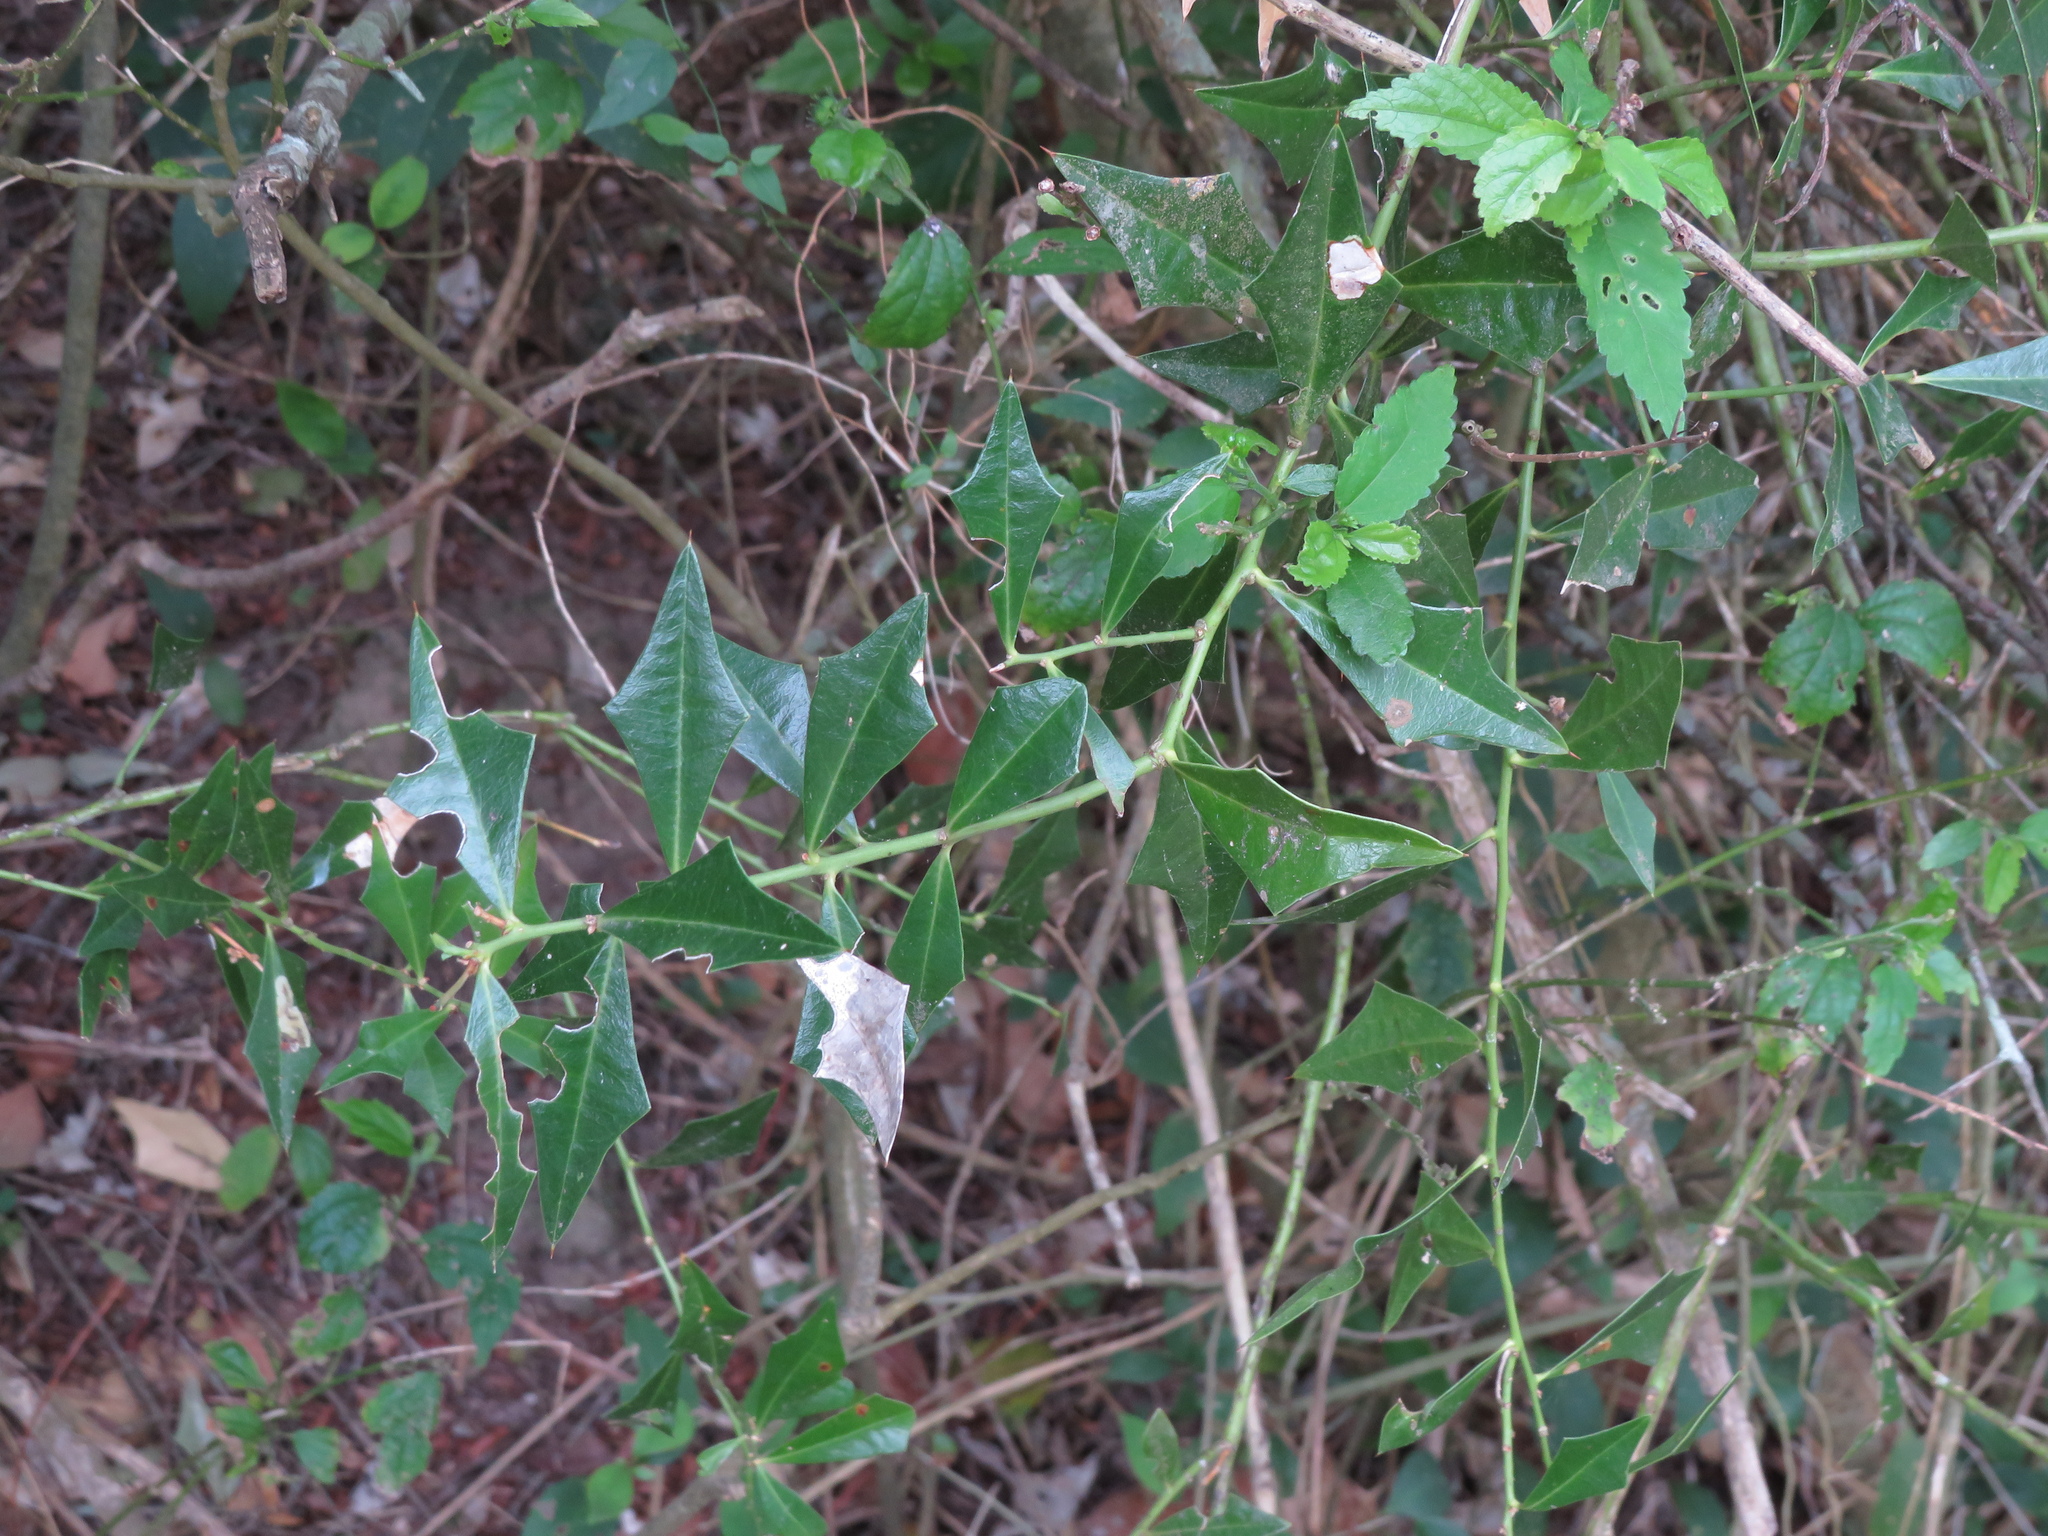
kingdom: Plantae
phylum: Tracheophyta
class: Magnoliopsida
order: Santalales
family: Cervantesiaceae
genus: Jodina
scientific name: Jodina rhombifolia
